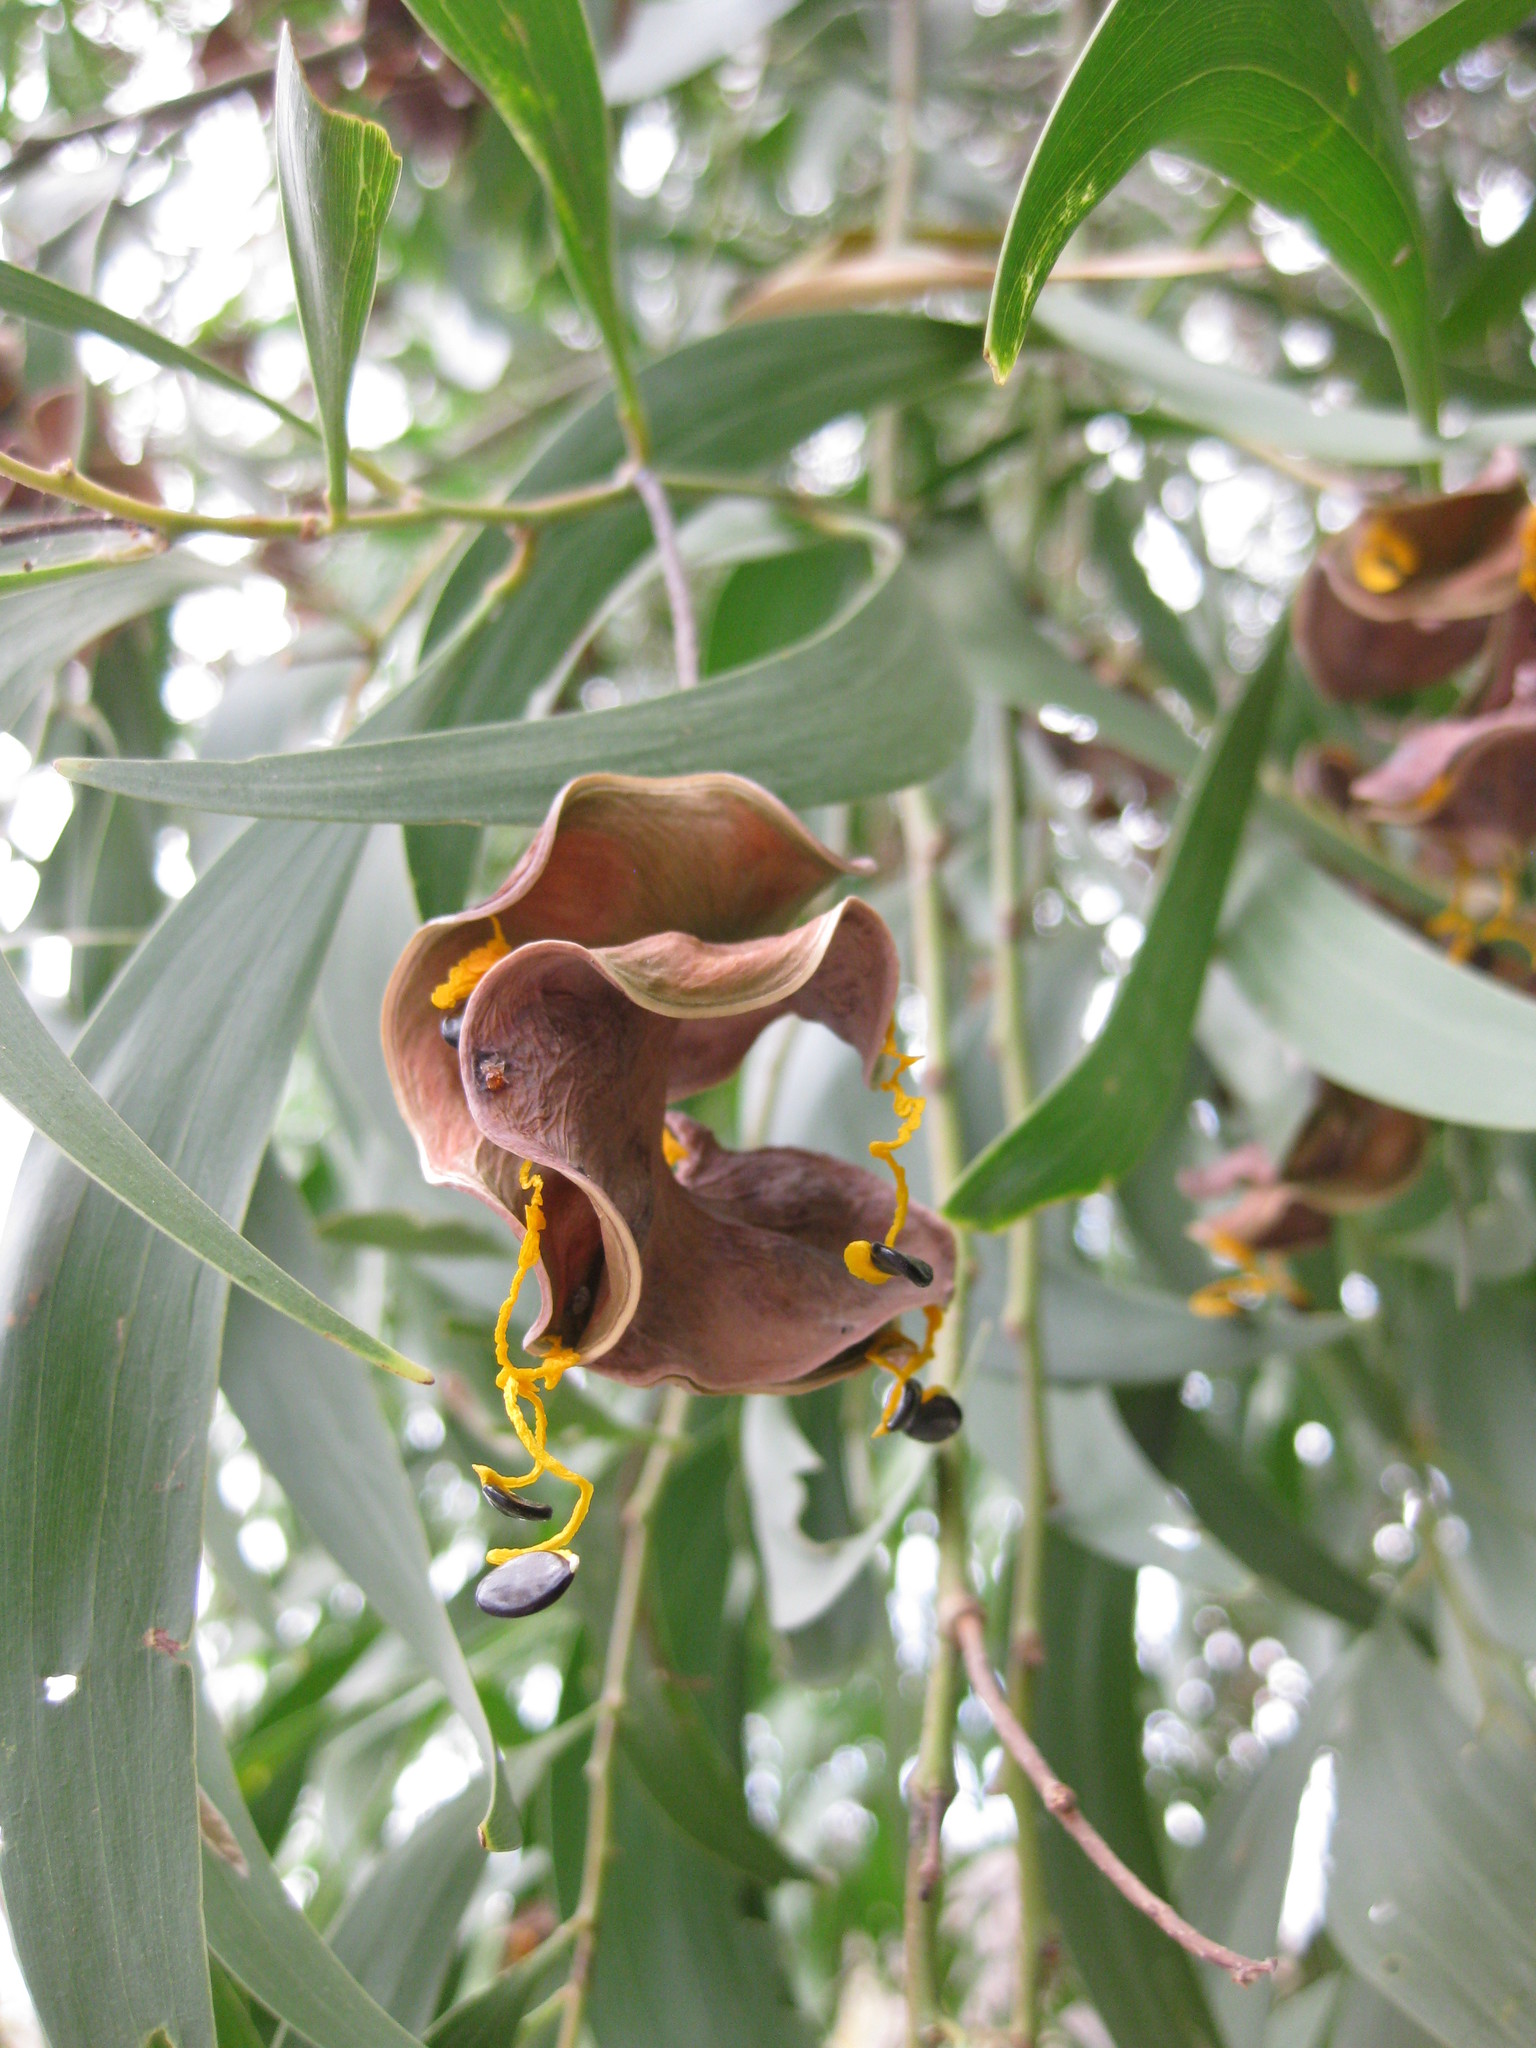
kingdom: Plantae
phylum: Tracheophyta
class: Magnoliopsida
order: Fabales
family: Fabaceae
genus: Acacia
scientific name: Acacia auriculiformis
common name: Earleaf acacia
